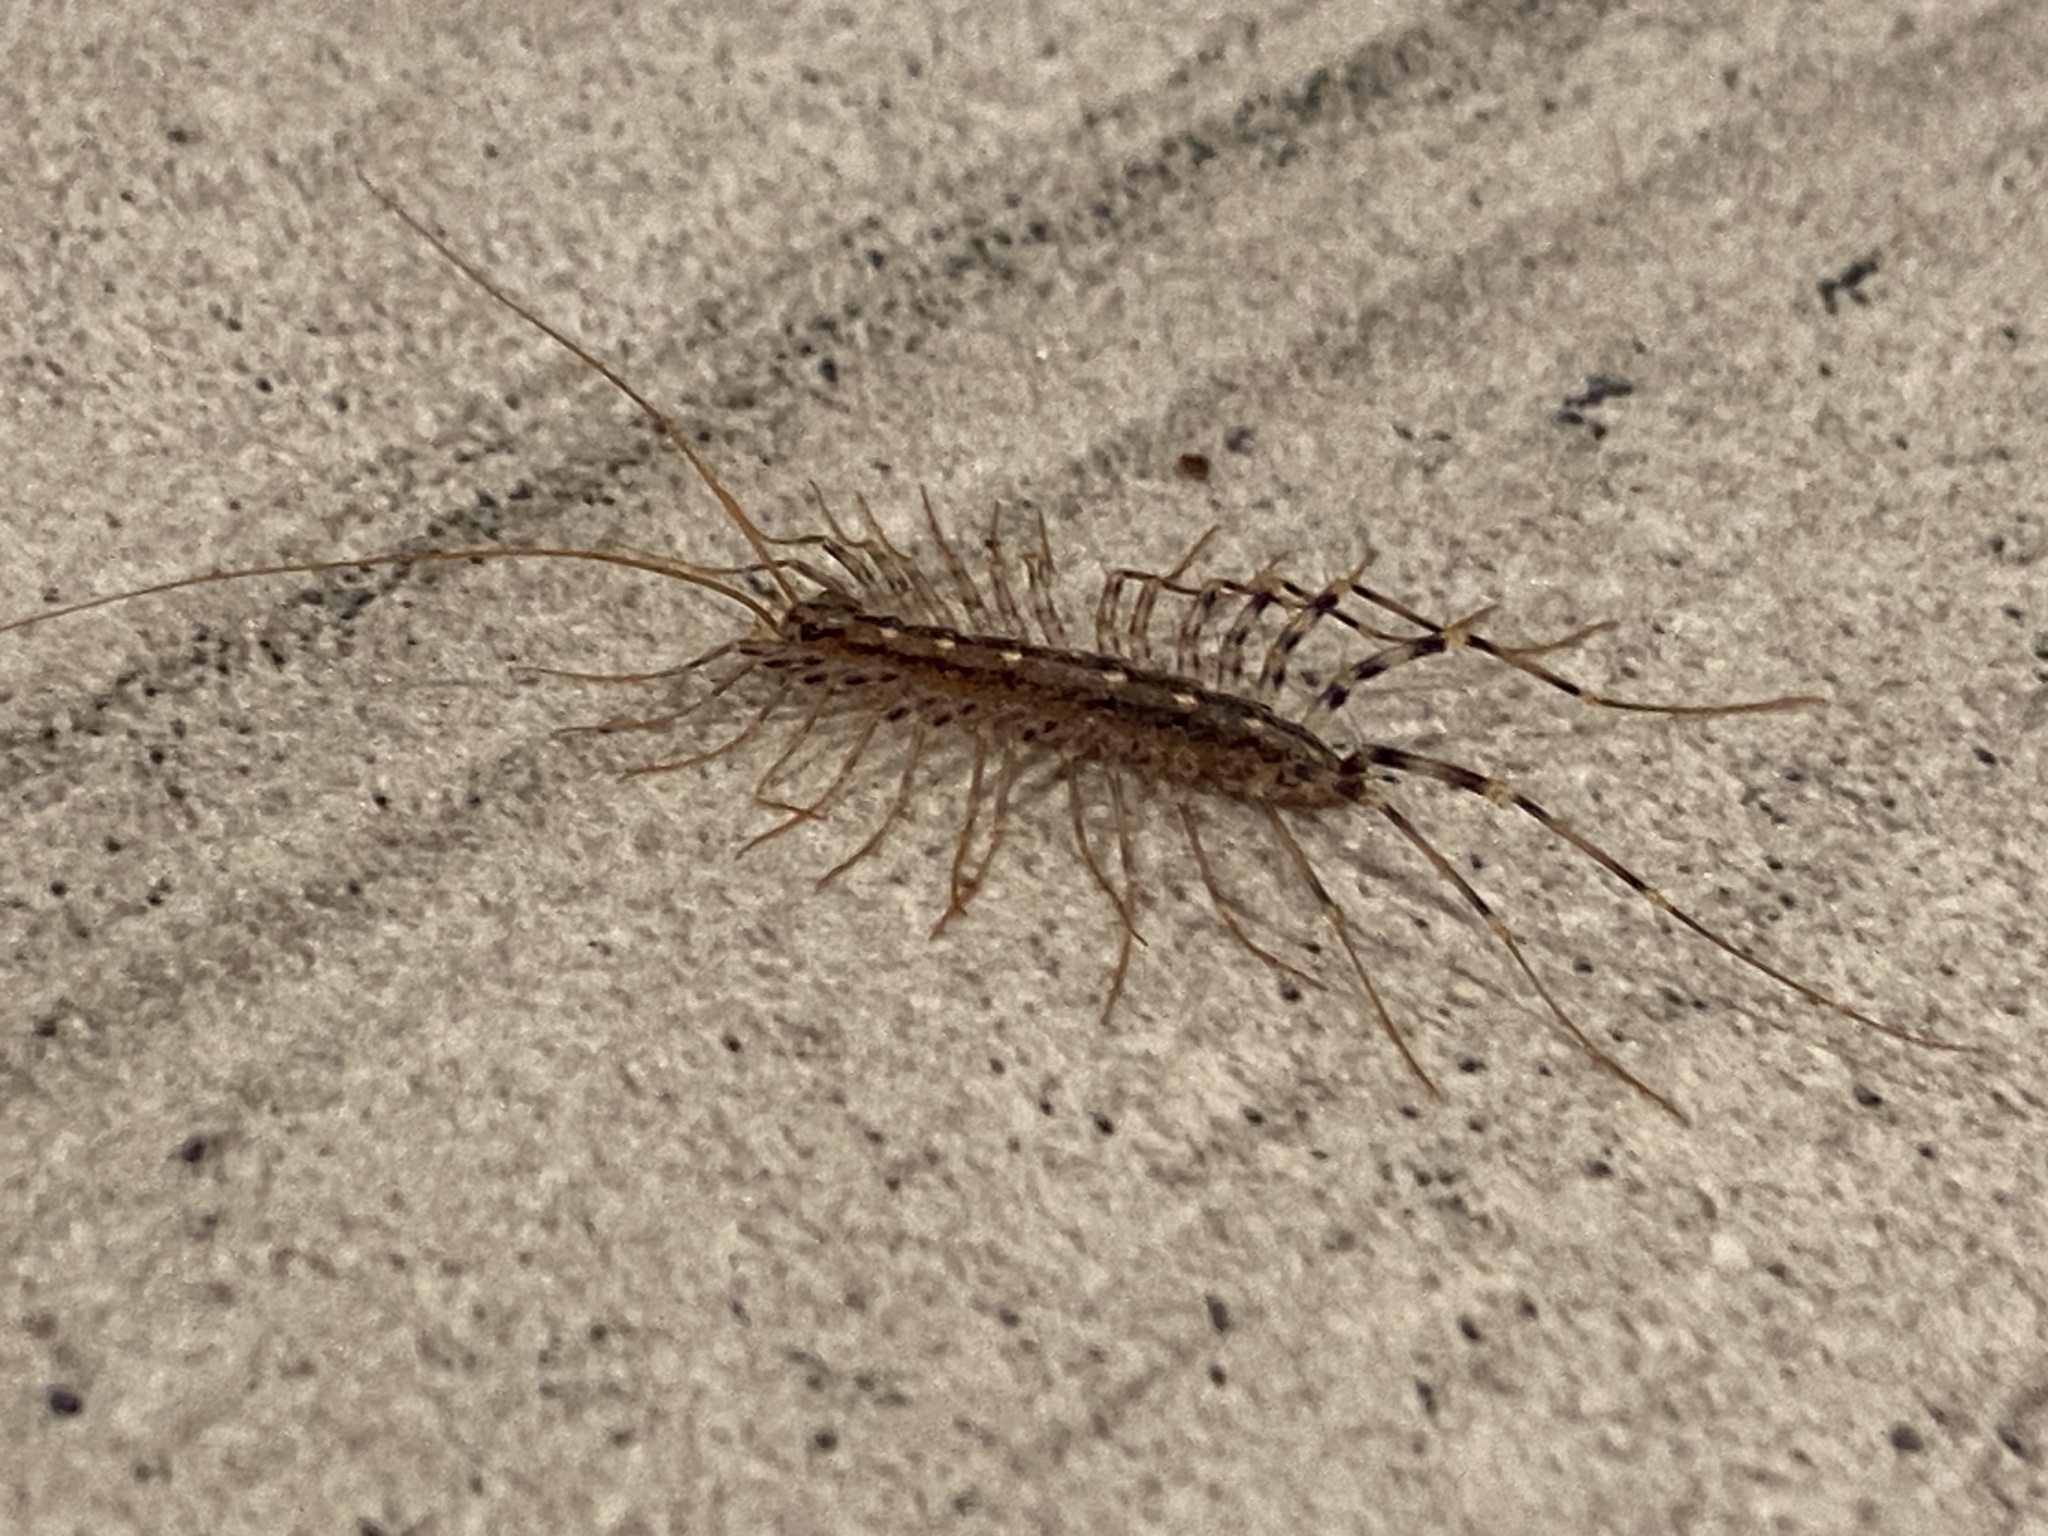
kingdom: Animalia
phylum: Arthropoda
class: Chilopoda
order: Scutigeromorpha
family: Scutigeridae
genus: Scutigera
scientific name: Scutigera coleoptrata
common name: House centipede
